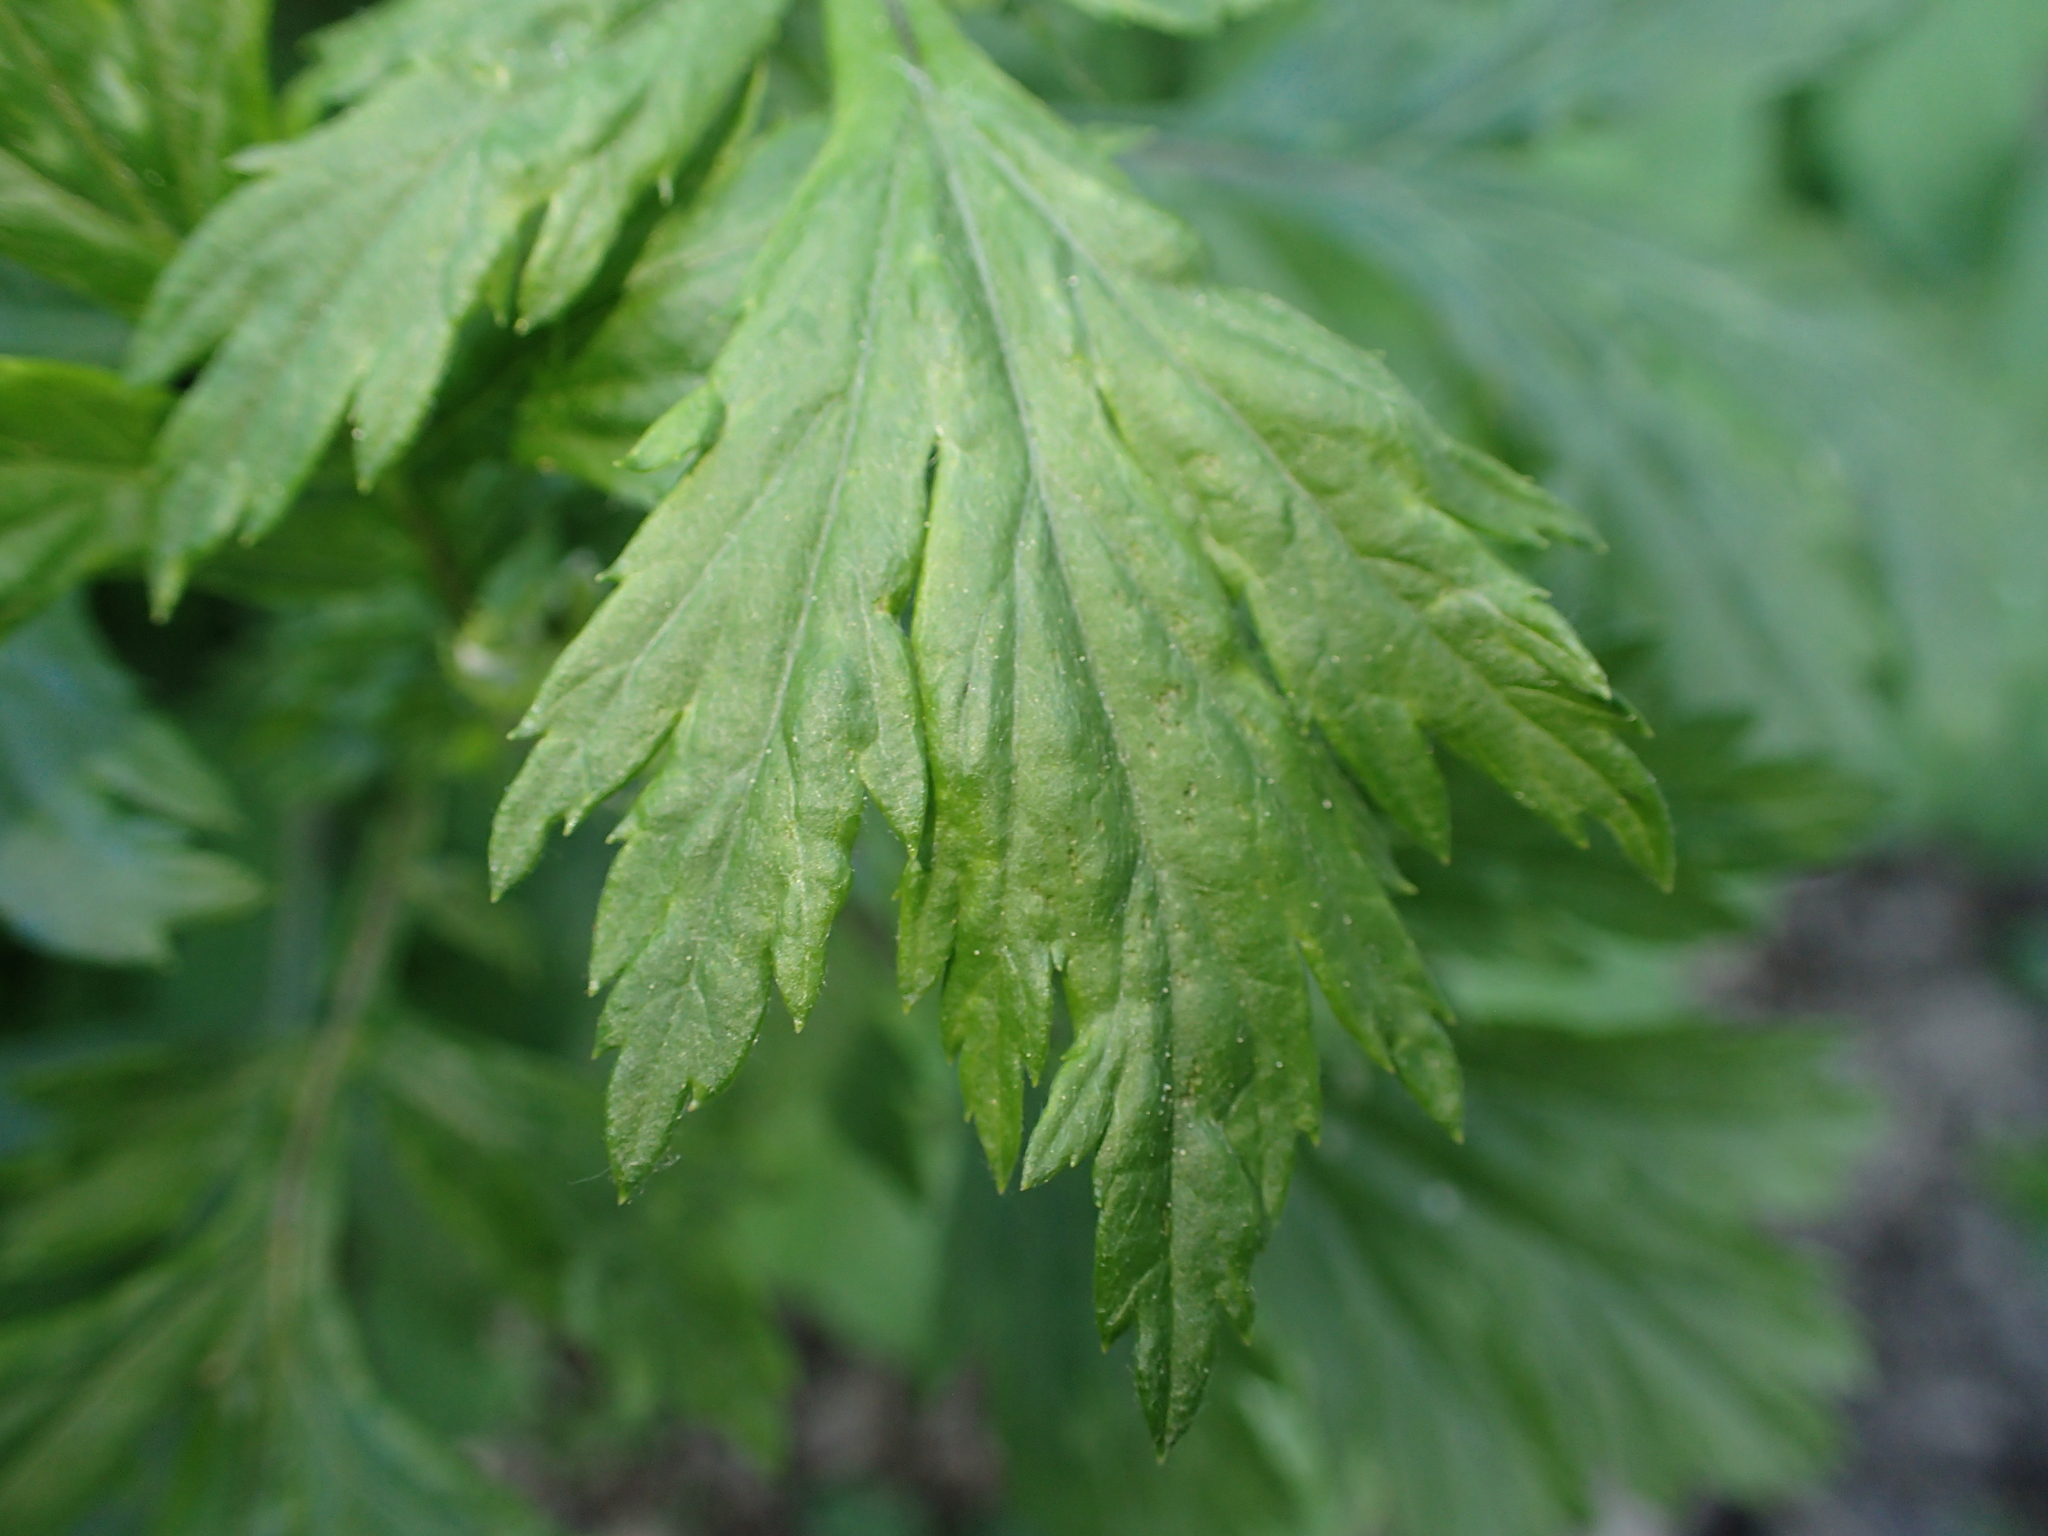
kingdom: Plantae
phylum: Tracheophyta
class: Magnoliopsida
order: Asterales
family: Asteraceae
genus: Artemisia
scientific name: Artemisia vulgaris
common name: Mugwort
